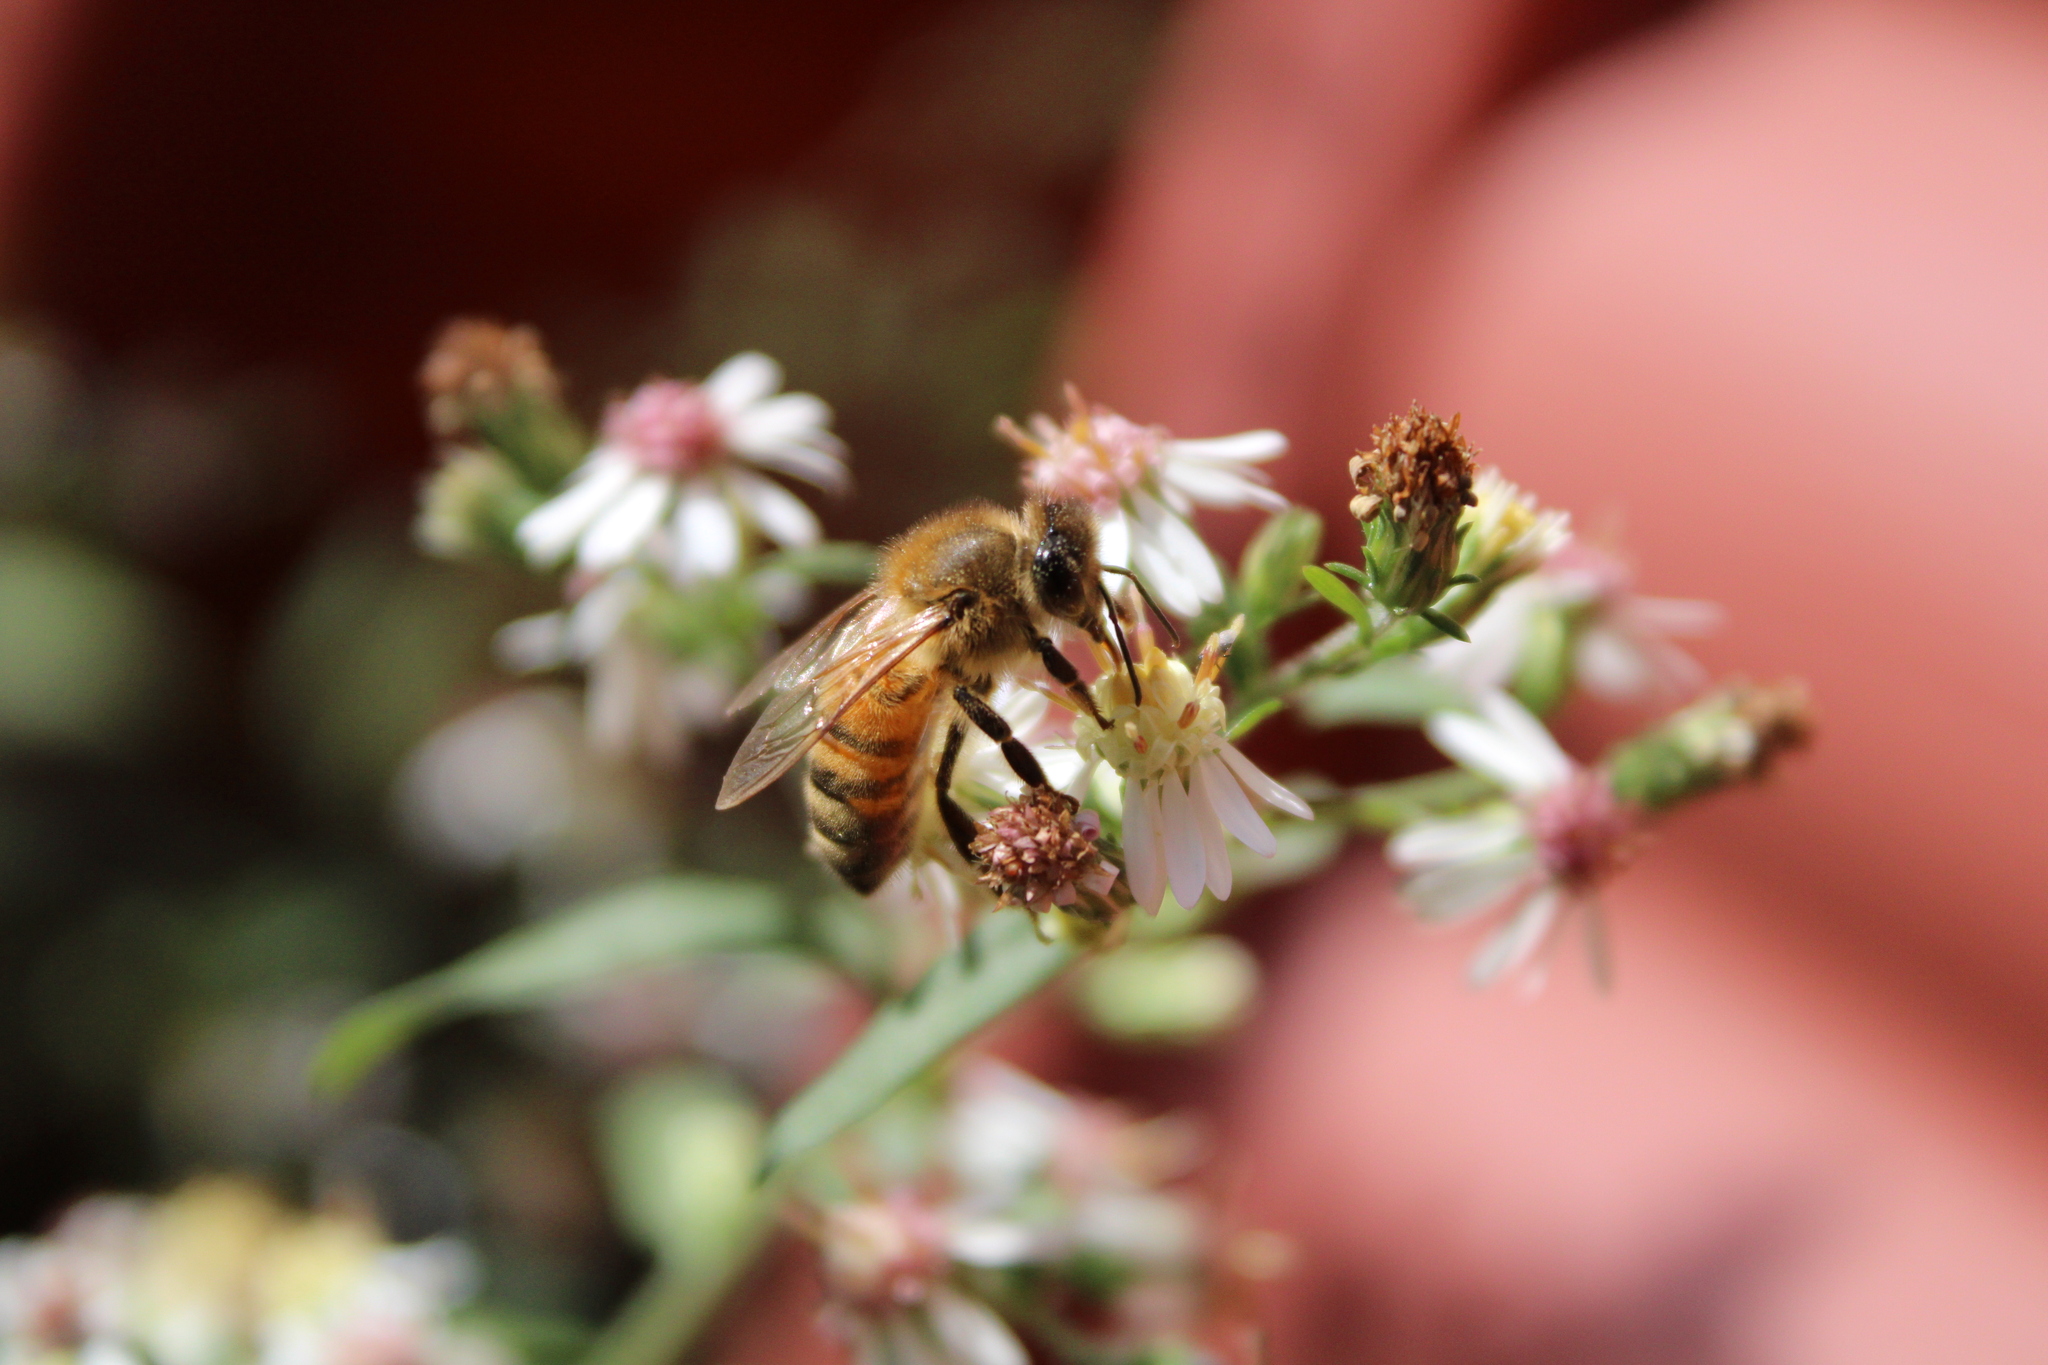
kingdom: Animalia
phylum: Arthropoda
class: Insecta
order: Hymenoptera
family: Apidae
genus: Apis
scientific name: Apis mellifera
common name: Honey bee
